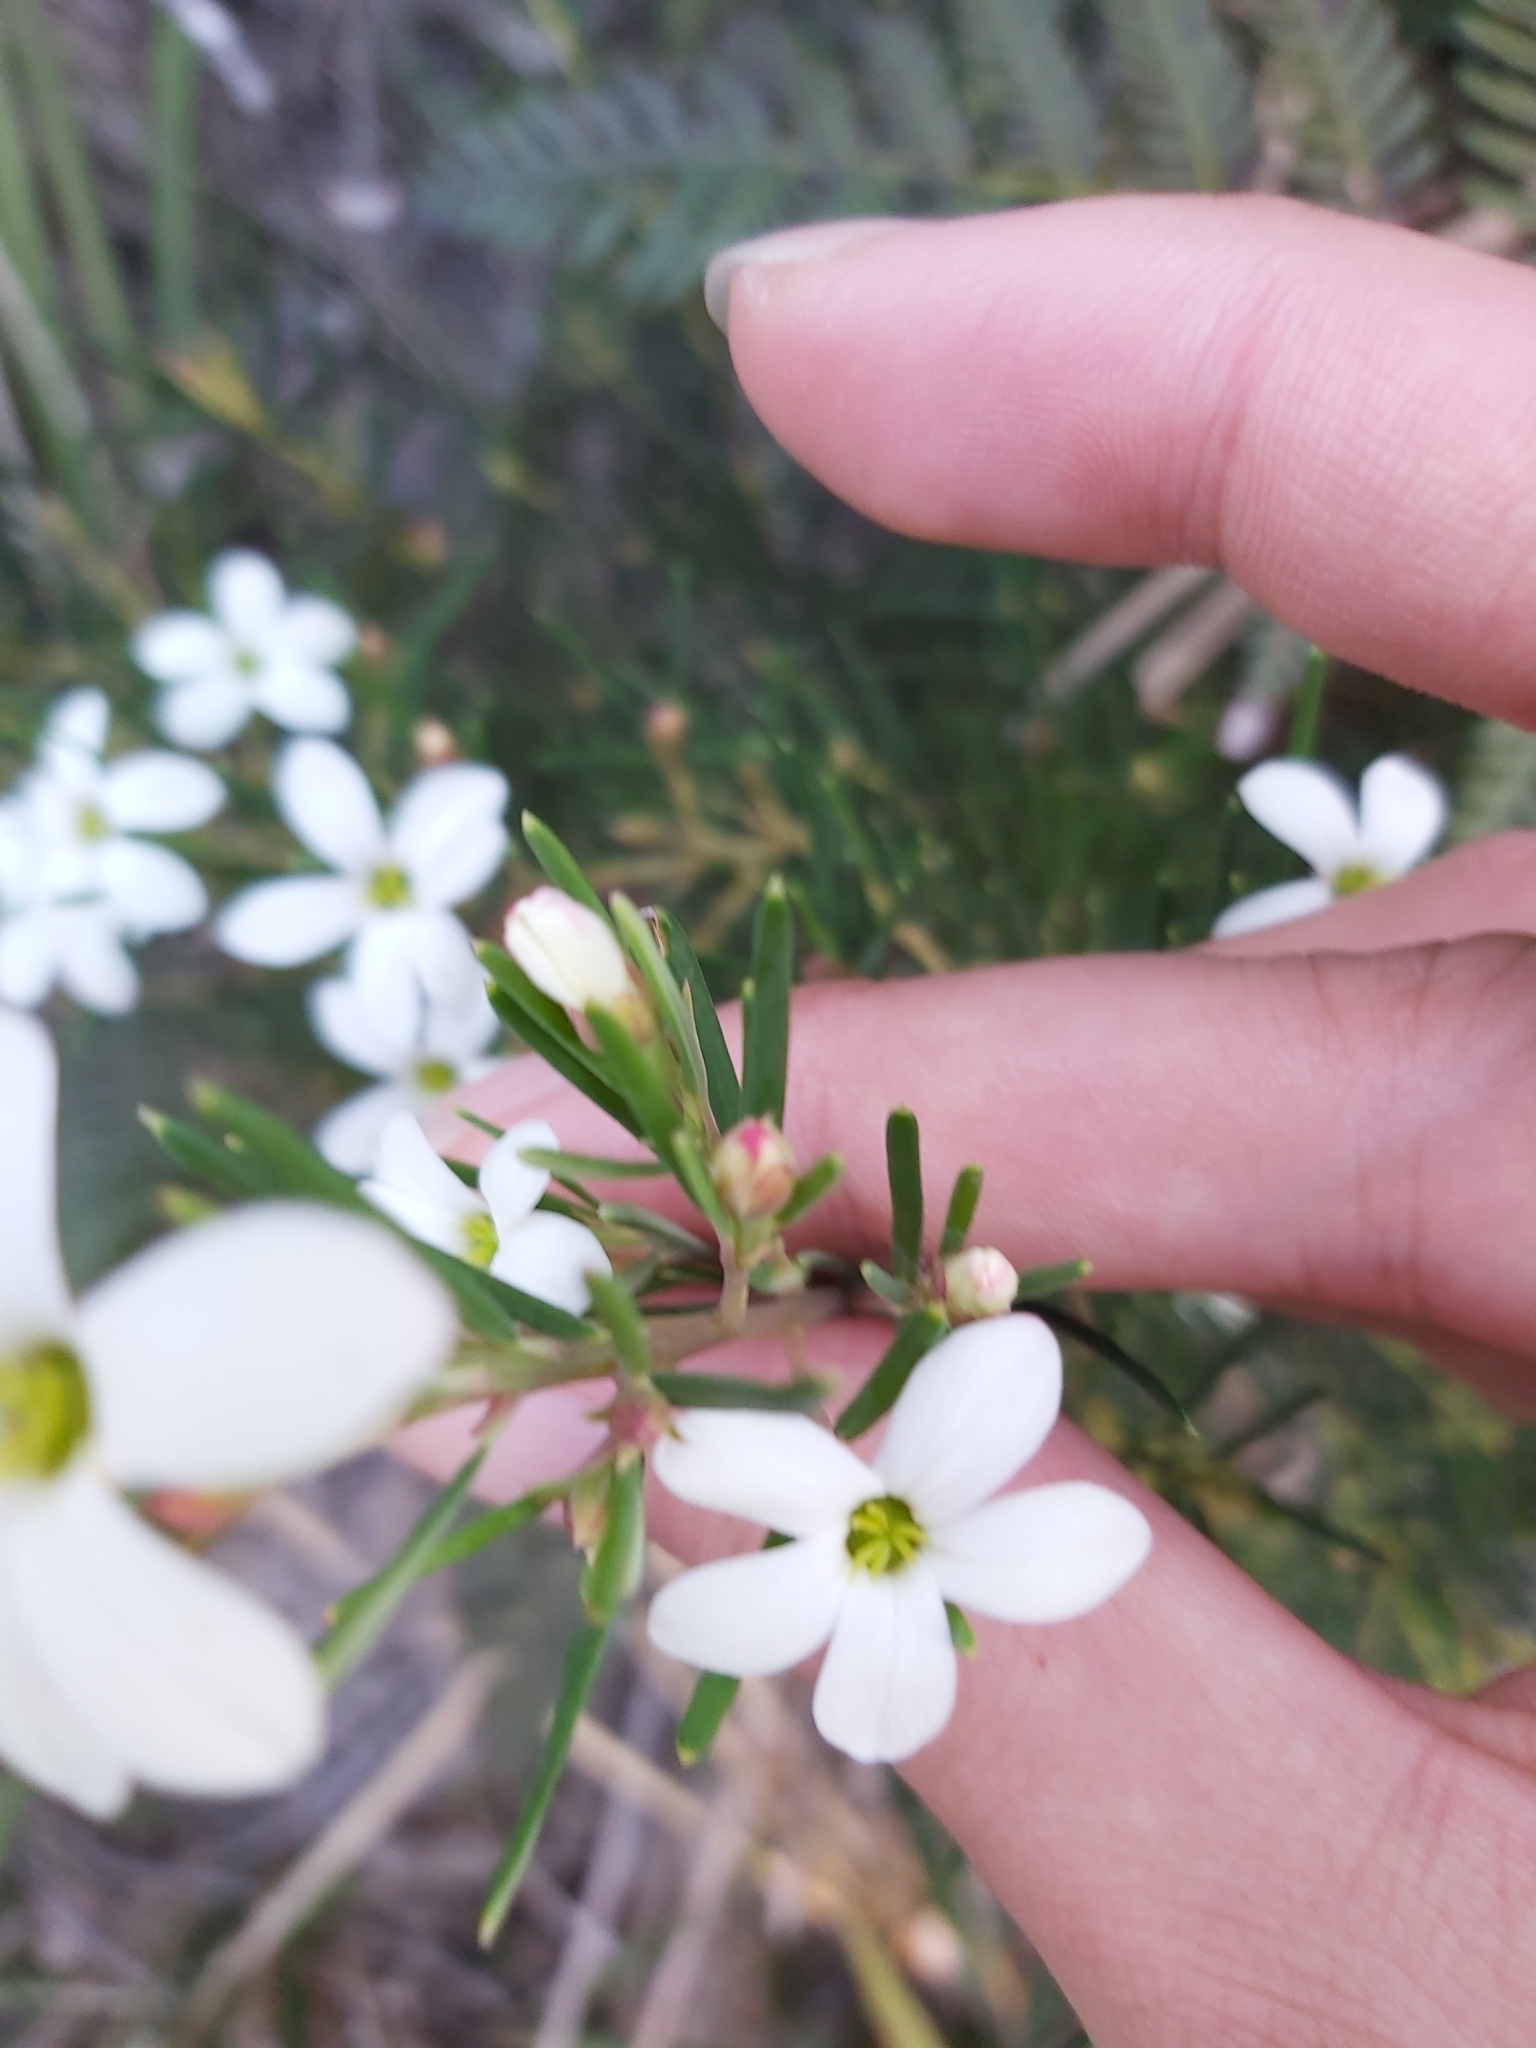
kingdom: Plantae
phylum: Tracheophyta
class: Magnoliopsida
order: Malpighiales
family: Euphorbiaceae
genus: Ricinocarpos
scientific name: Ricinocarpos pinifolius
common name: Weddingbush
